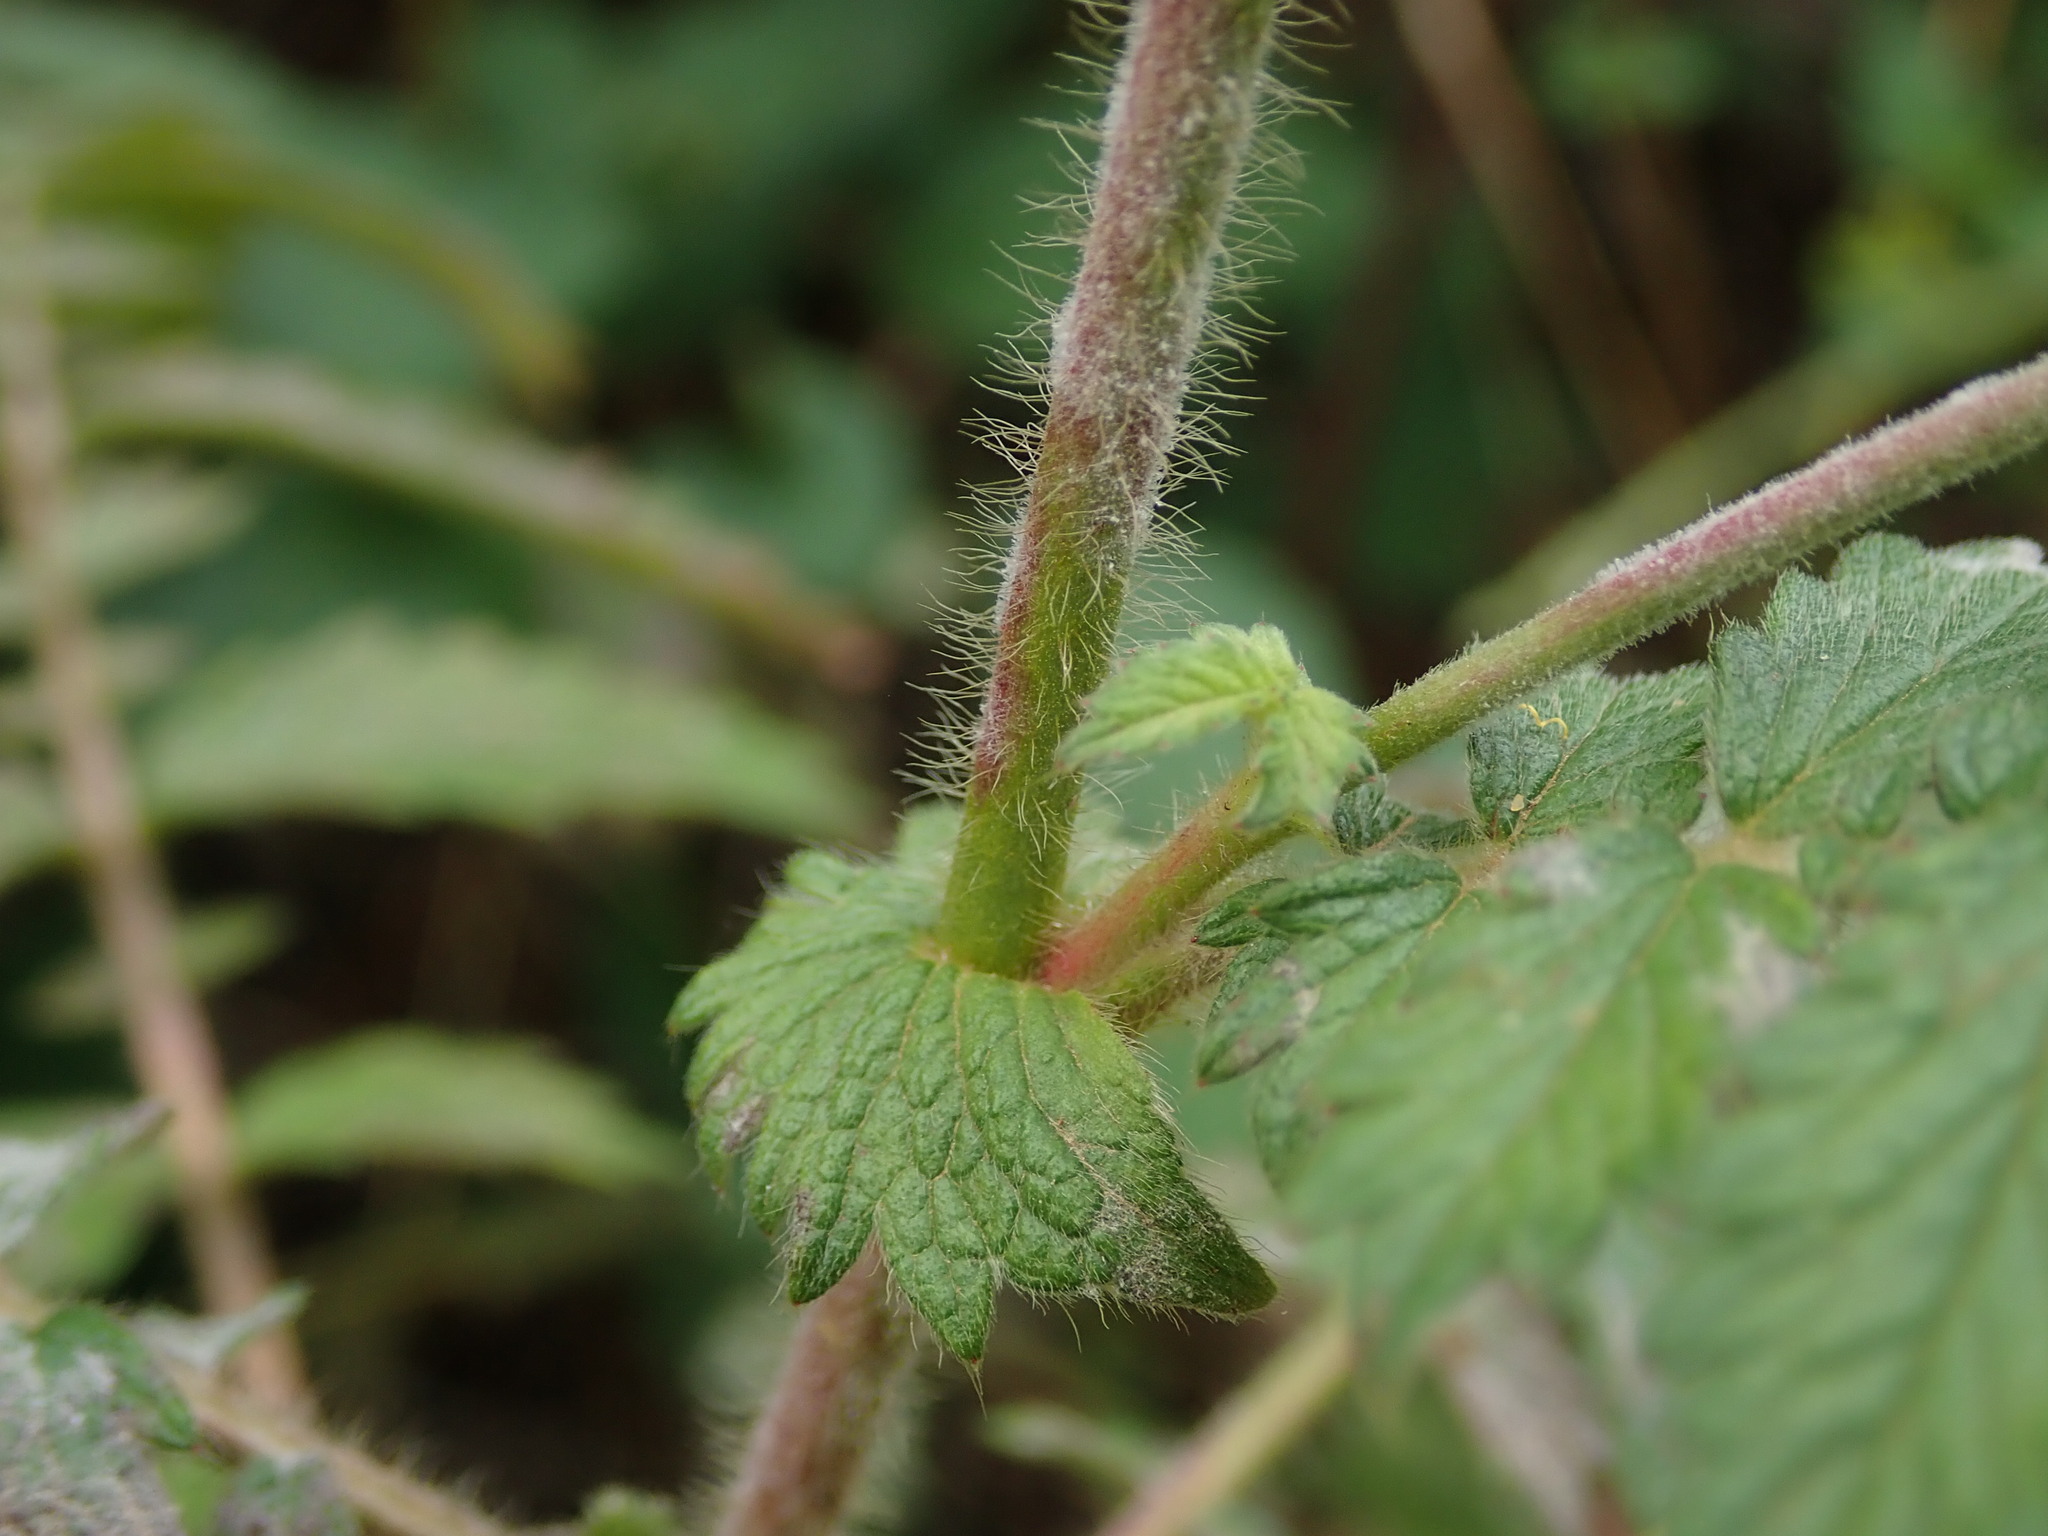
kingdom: Plantae
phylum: Tracheophyta
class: Magnoliopsida
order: Rosales
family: Rosaceae
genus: Agrimonia
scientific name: Agrimonia eupatoria
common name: Agrimony
